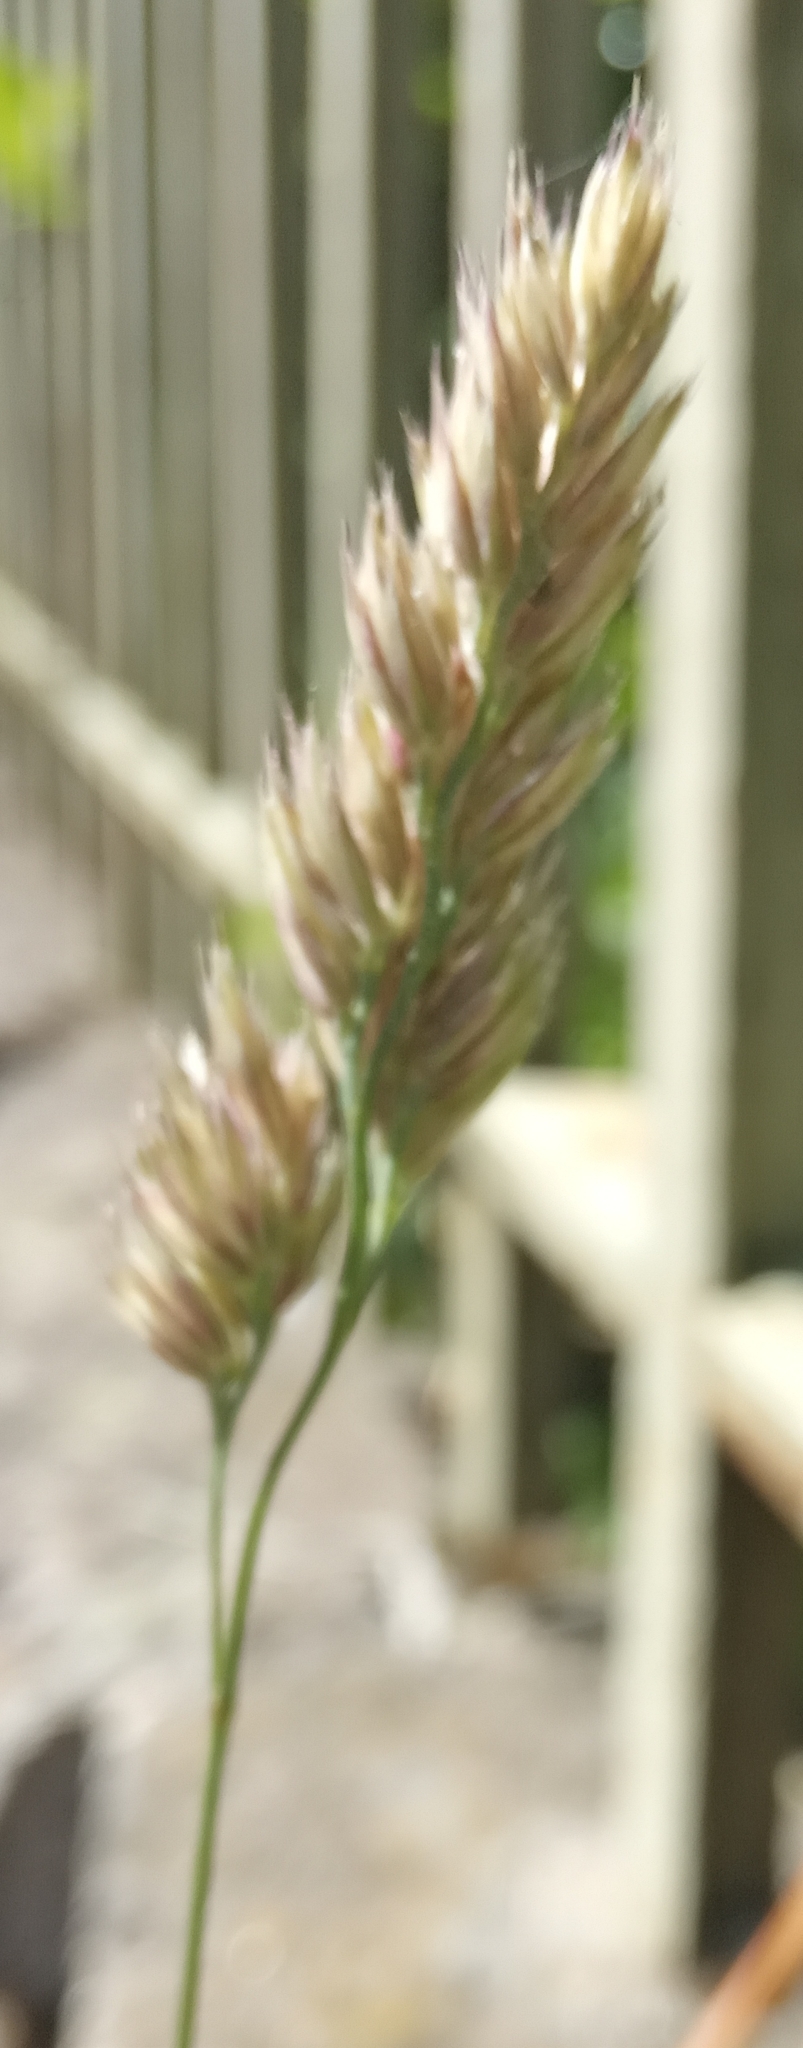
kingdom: Plantae
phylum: Tracheophyta
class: Liliopsida
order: Poales
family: Poaceae
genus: Dactylis
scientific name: Dactylis glomerata
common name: Orchardgrass
